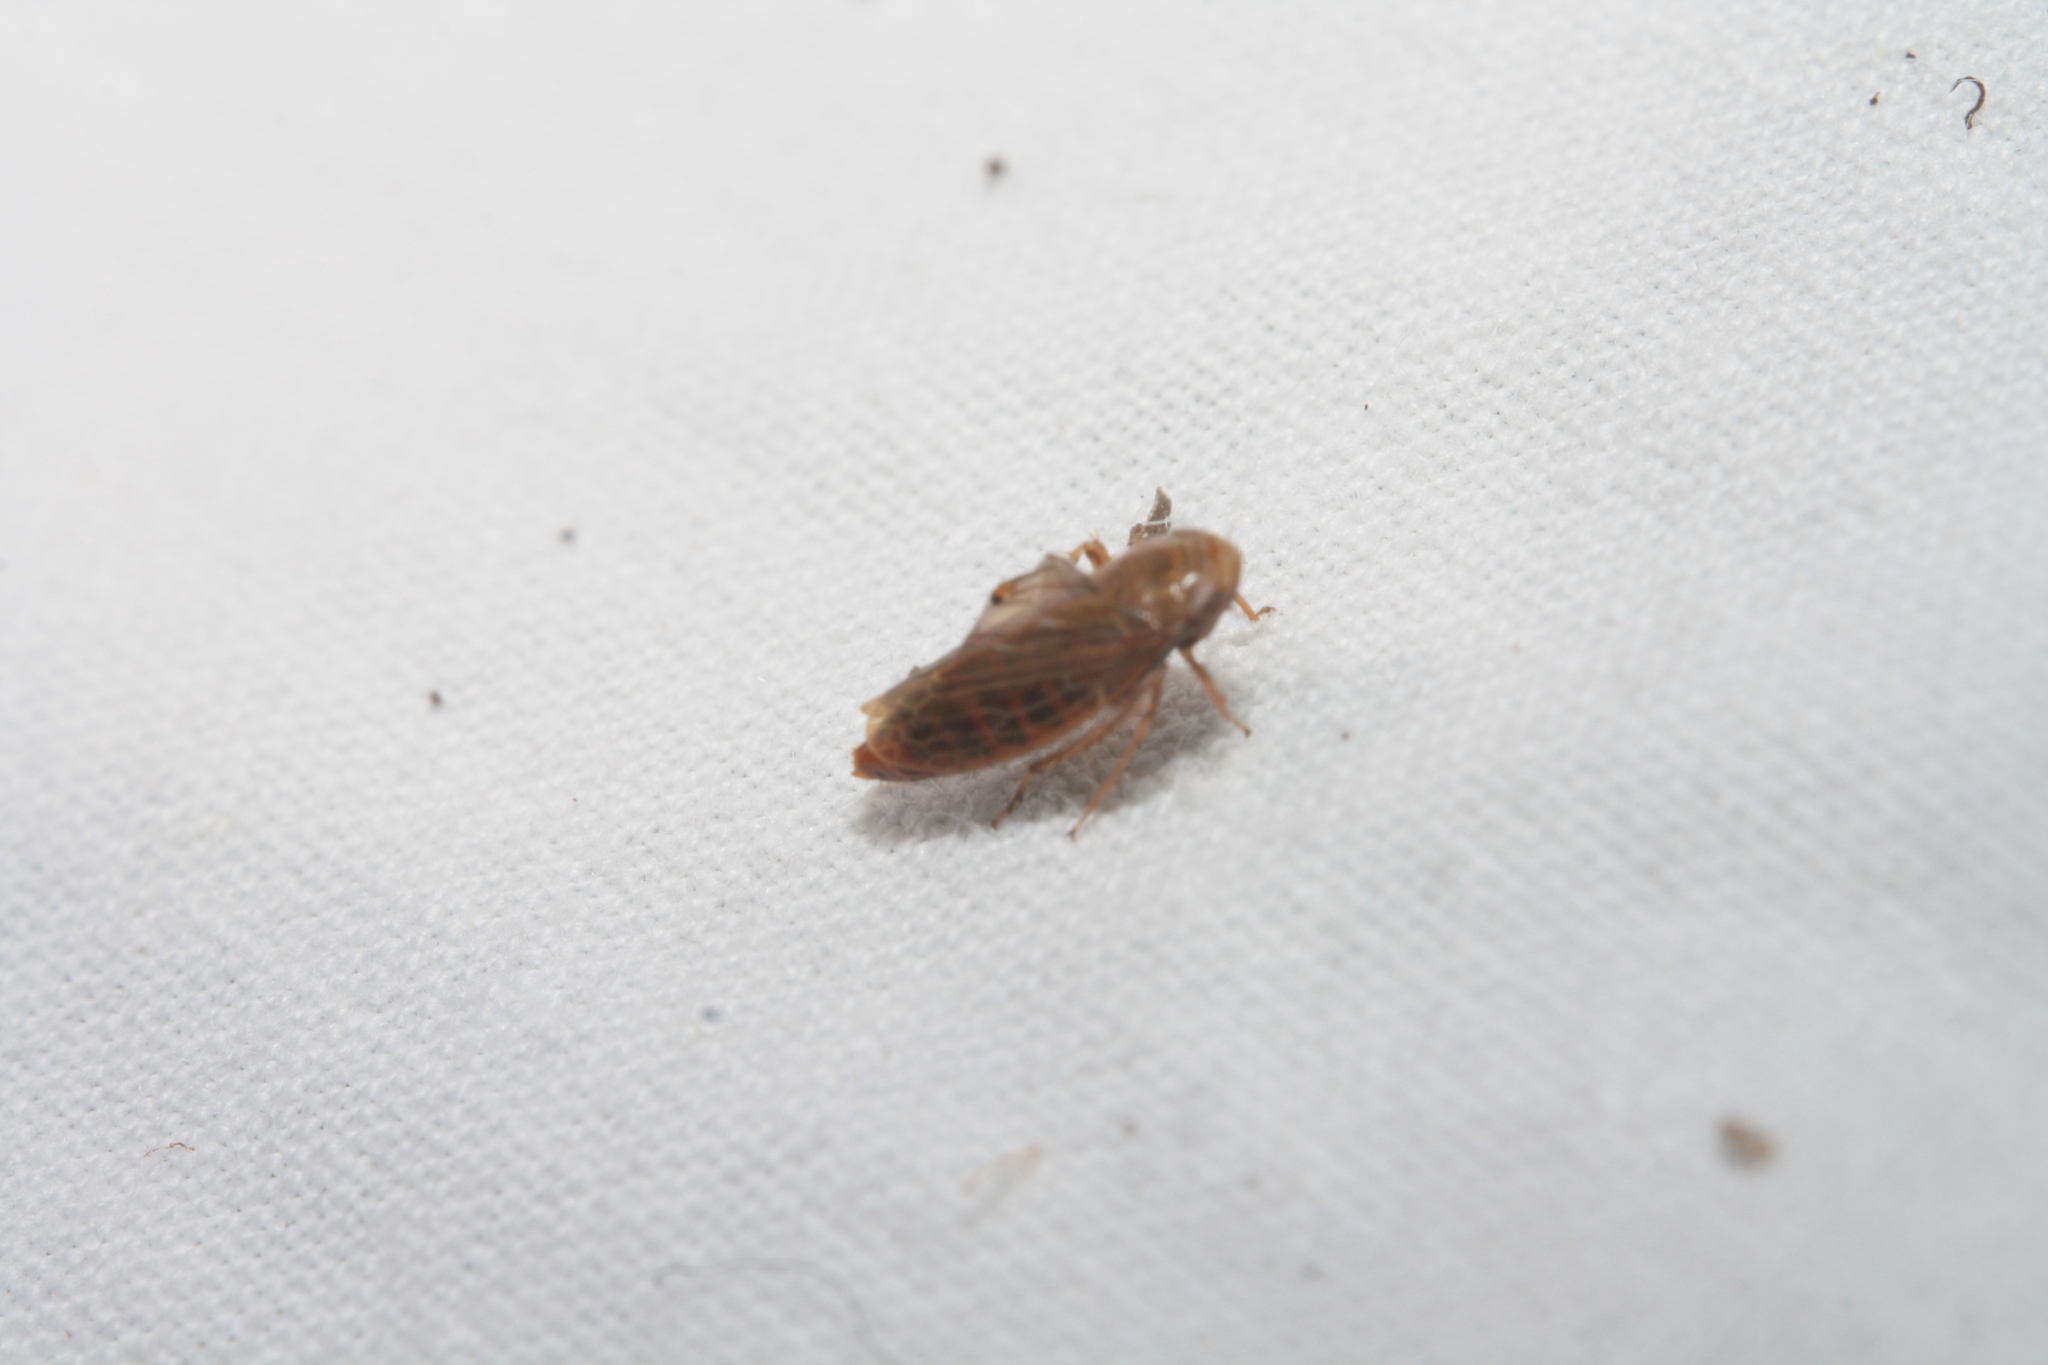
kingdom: Animalia
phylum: Arthropoda
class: Insecta
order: Hemiptera
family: Cicadellidae
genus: Speudotettix
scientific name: Speudotettix subfusculus
